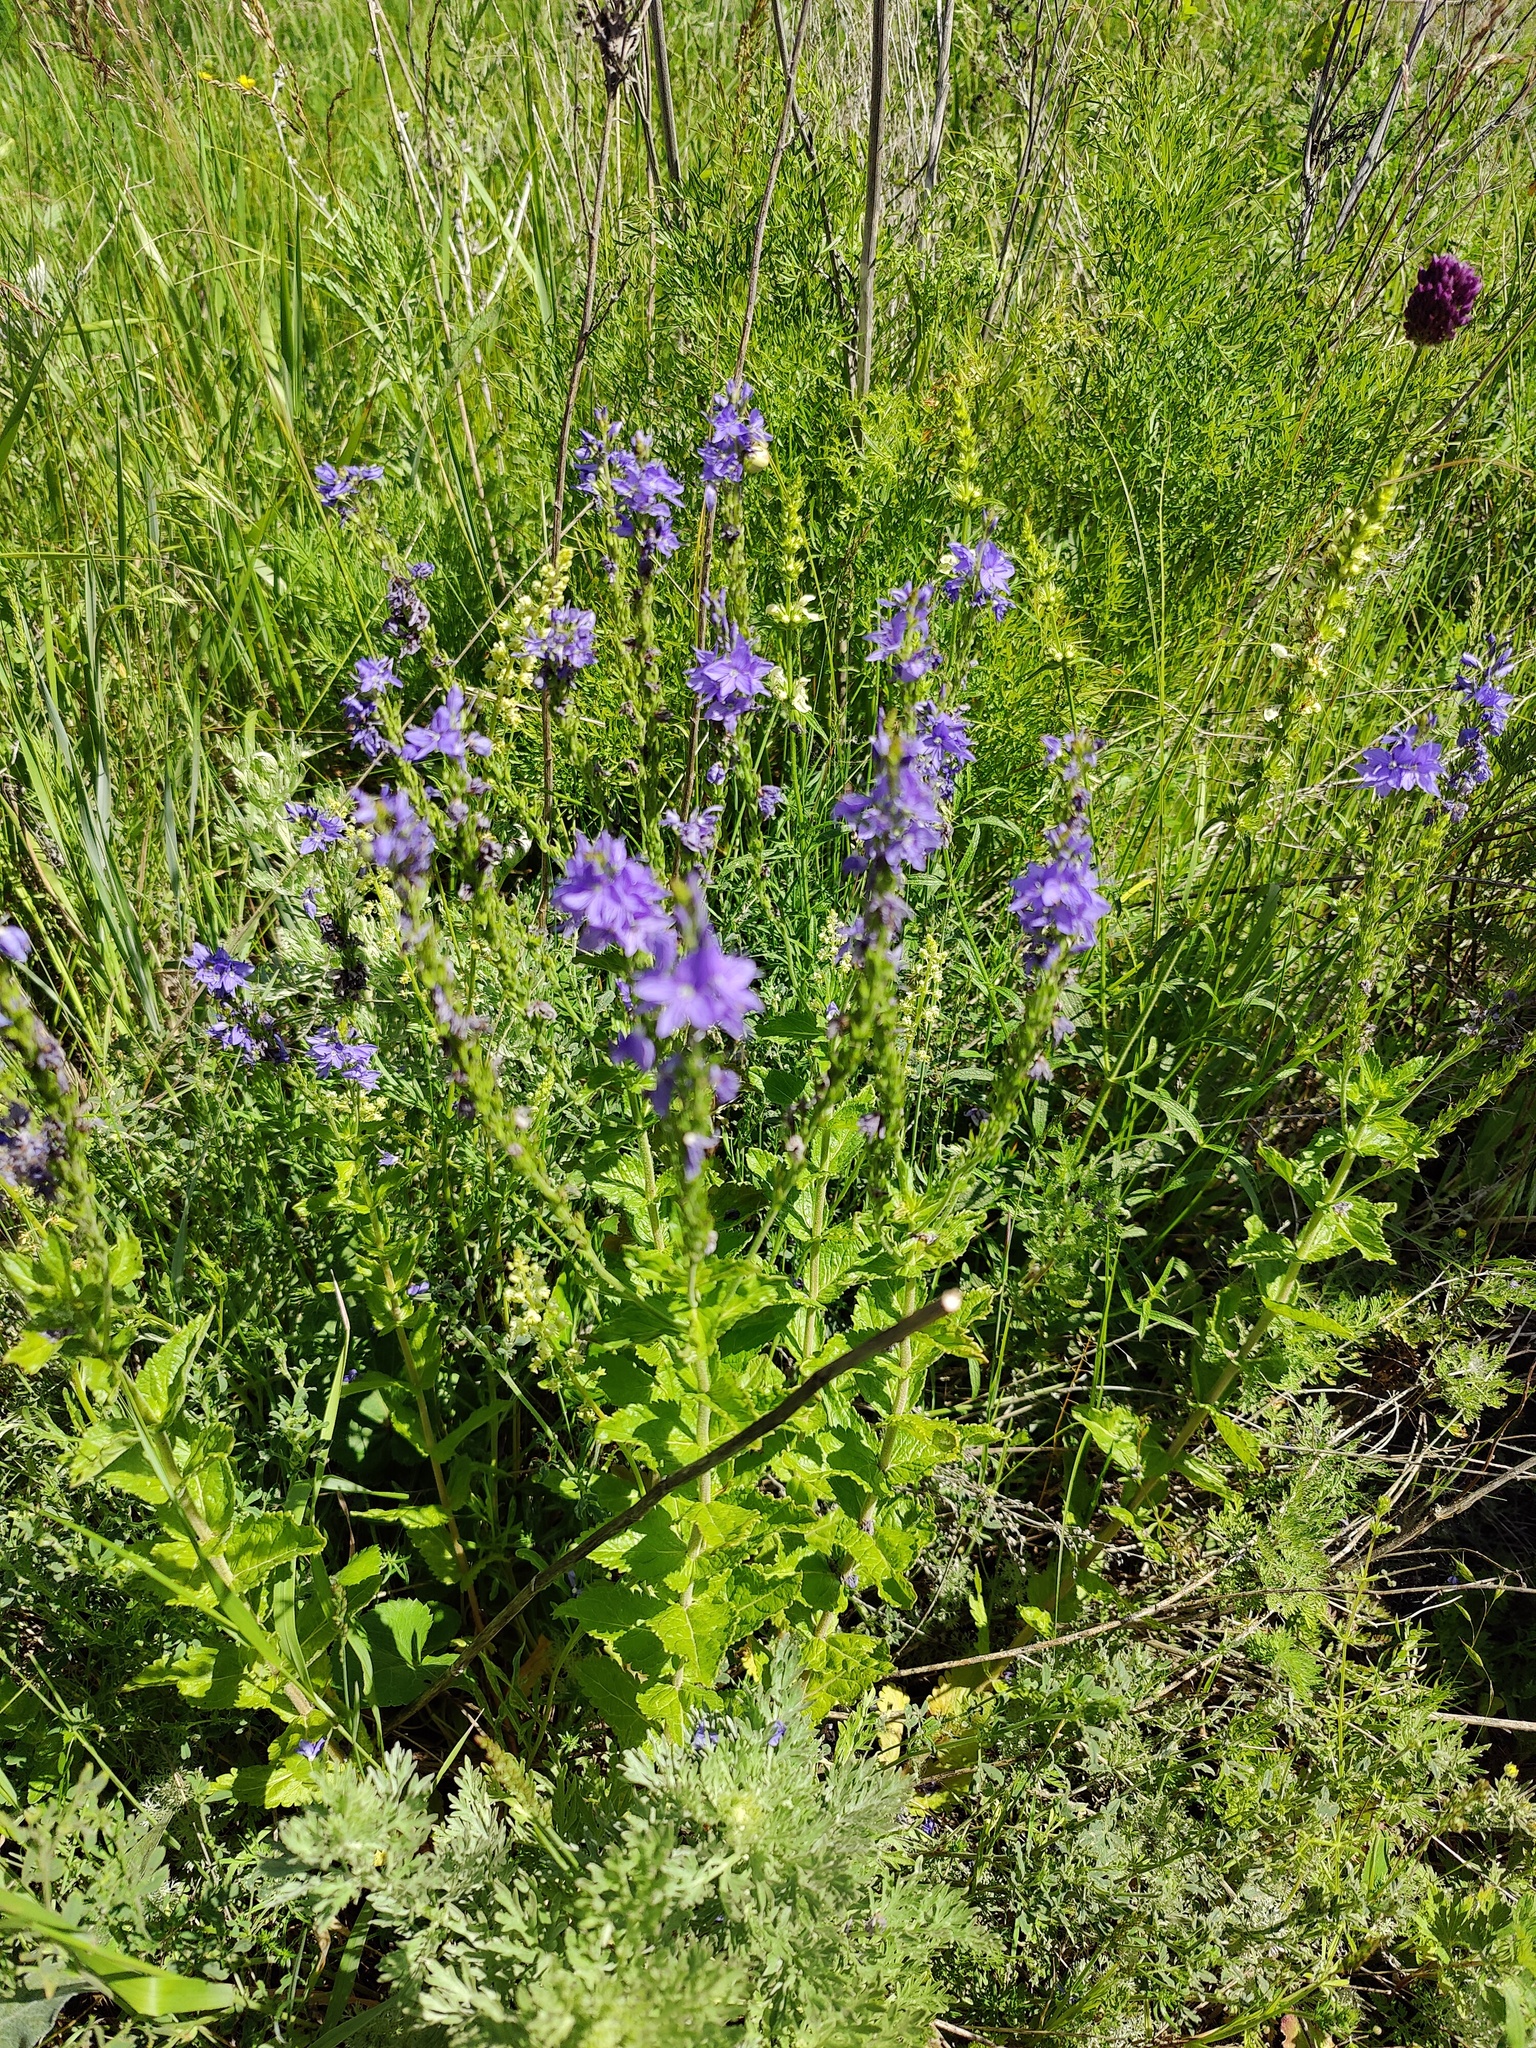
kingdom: Plantae
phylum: Tracheophyta
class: Magnoliopsida
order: Lamiales
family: Plantaginaceae
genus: Veronica
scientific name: Veronica teucrium
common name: Large speedwell
